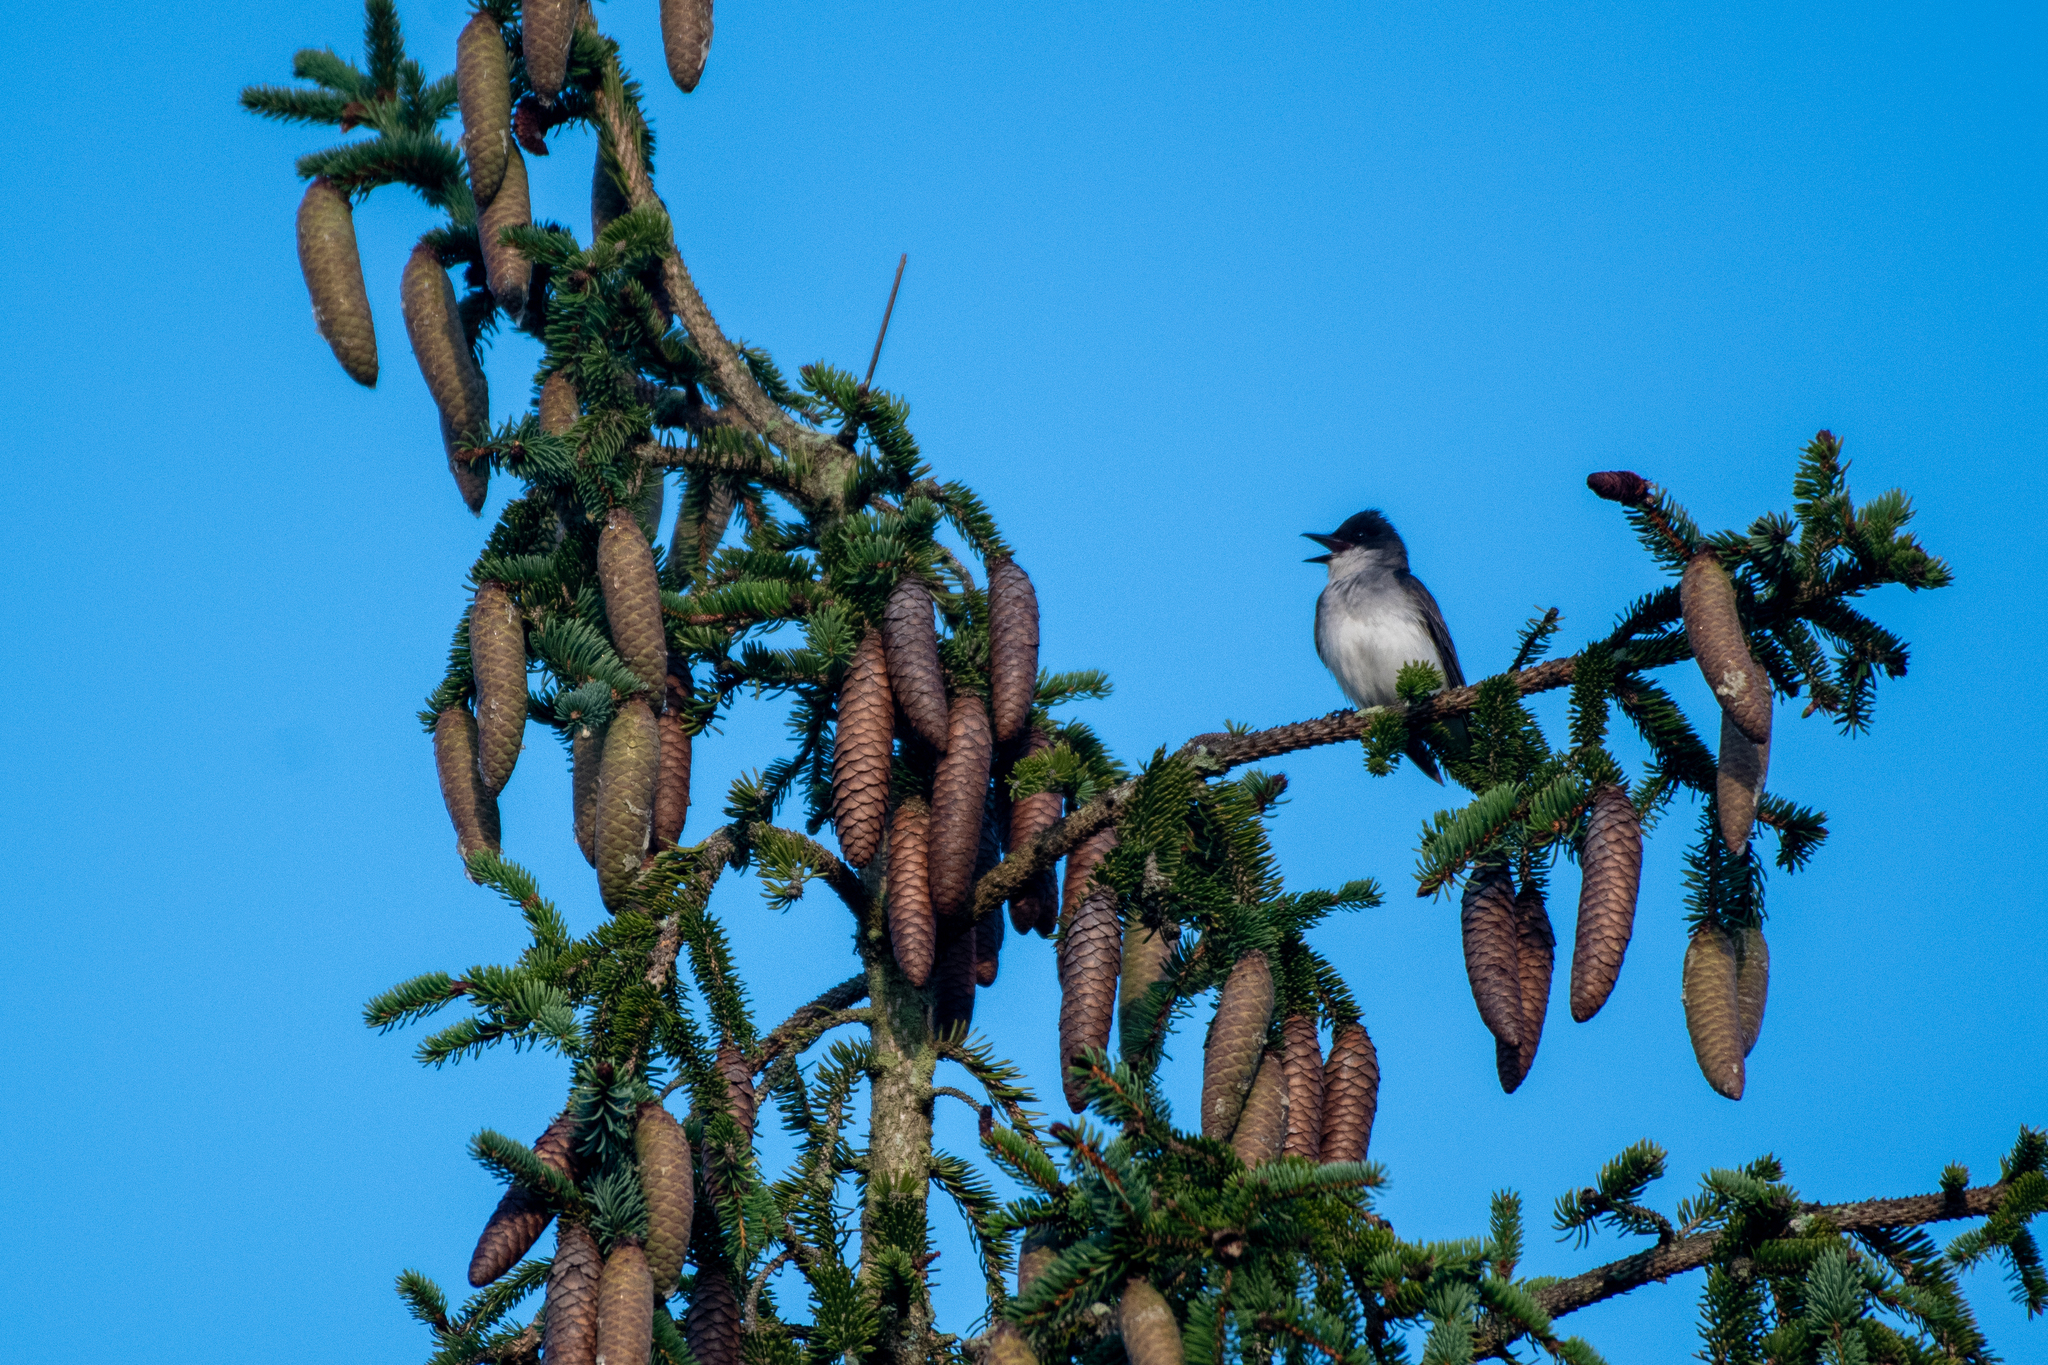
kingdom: Animalia
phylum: Chordata
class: Aves
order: Passeriformes
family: Tyrannidae
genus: Tyrannus
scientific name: Tyrannus tyrannus
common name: Eastern kingbird
